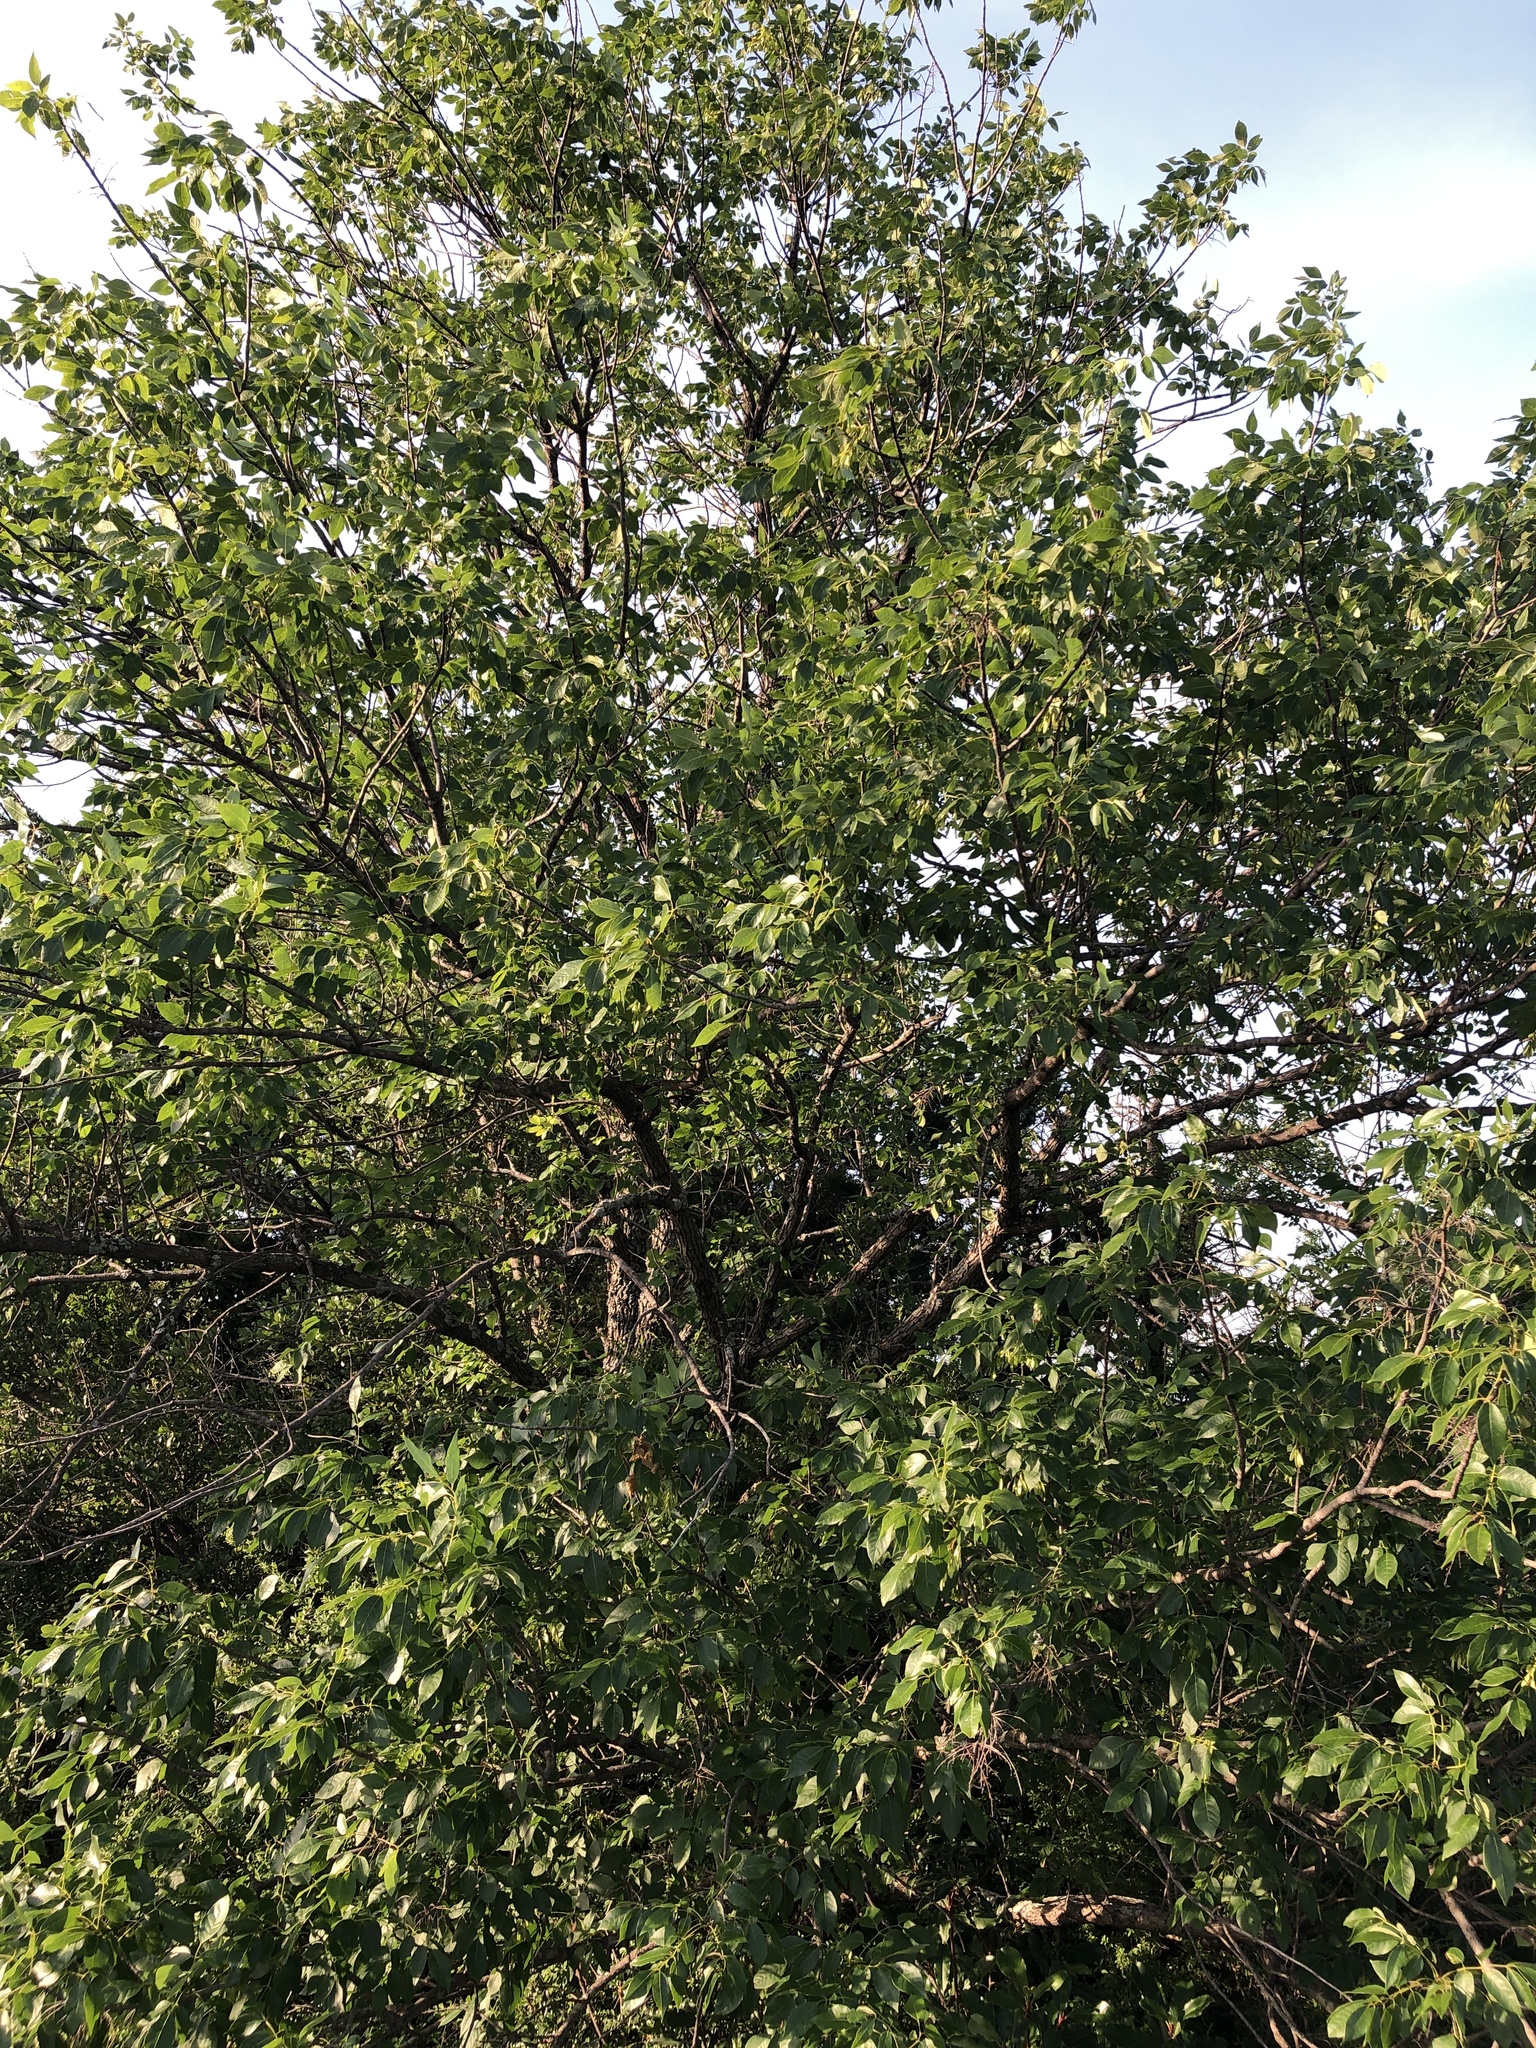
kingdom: Plantae
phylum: Tracheophyta
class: Magnoliopsida
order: Lamiales
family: Oleaceae
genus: Fraxinus
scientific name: Fraxinus albicans
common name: Texas ash
